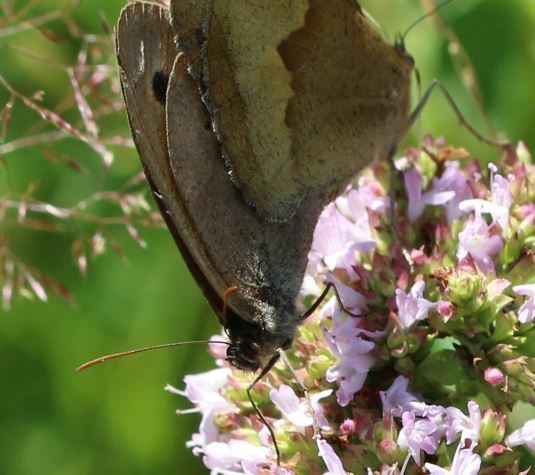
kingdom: Animalia
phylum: Arthropoda
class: Insecta
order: Lepidoptera
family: Nymphalidae
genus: Maniola
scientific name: Maniola jurtina
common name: Meadow brown
